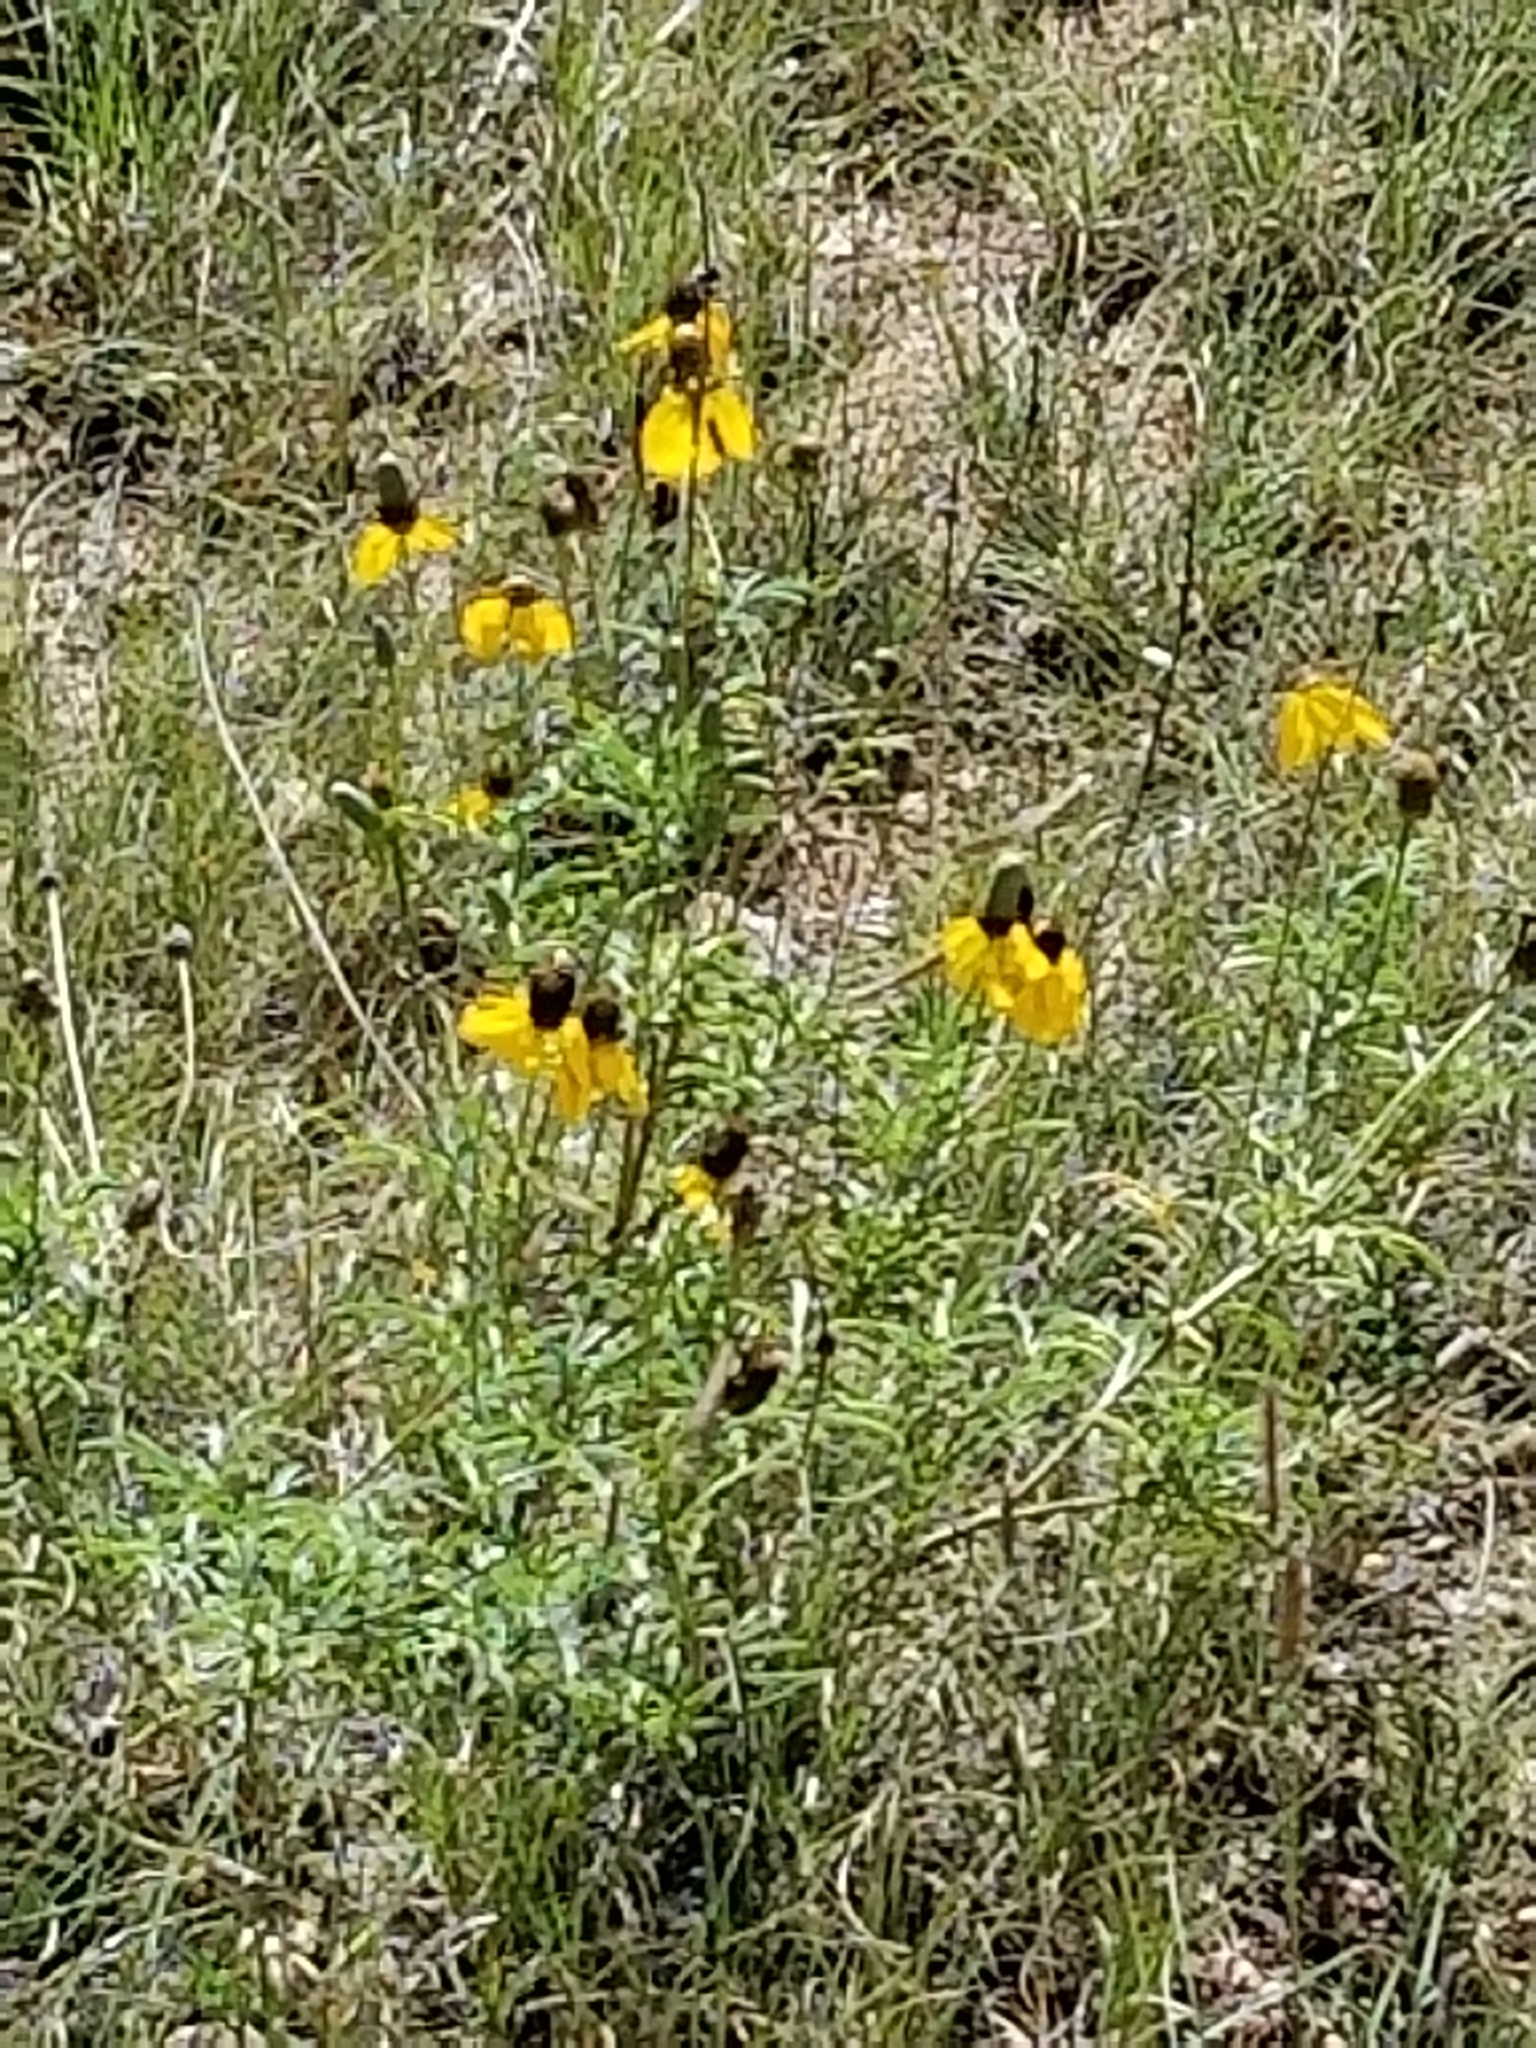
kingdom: Plantae
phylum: Tracheophyta
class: Magnoliopsida
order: Asterales
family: Asteraceae
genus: Ratibida
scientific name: Ratibida columnifera
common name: Prairie coneflower
